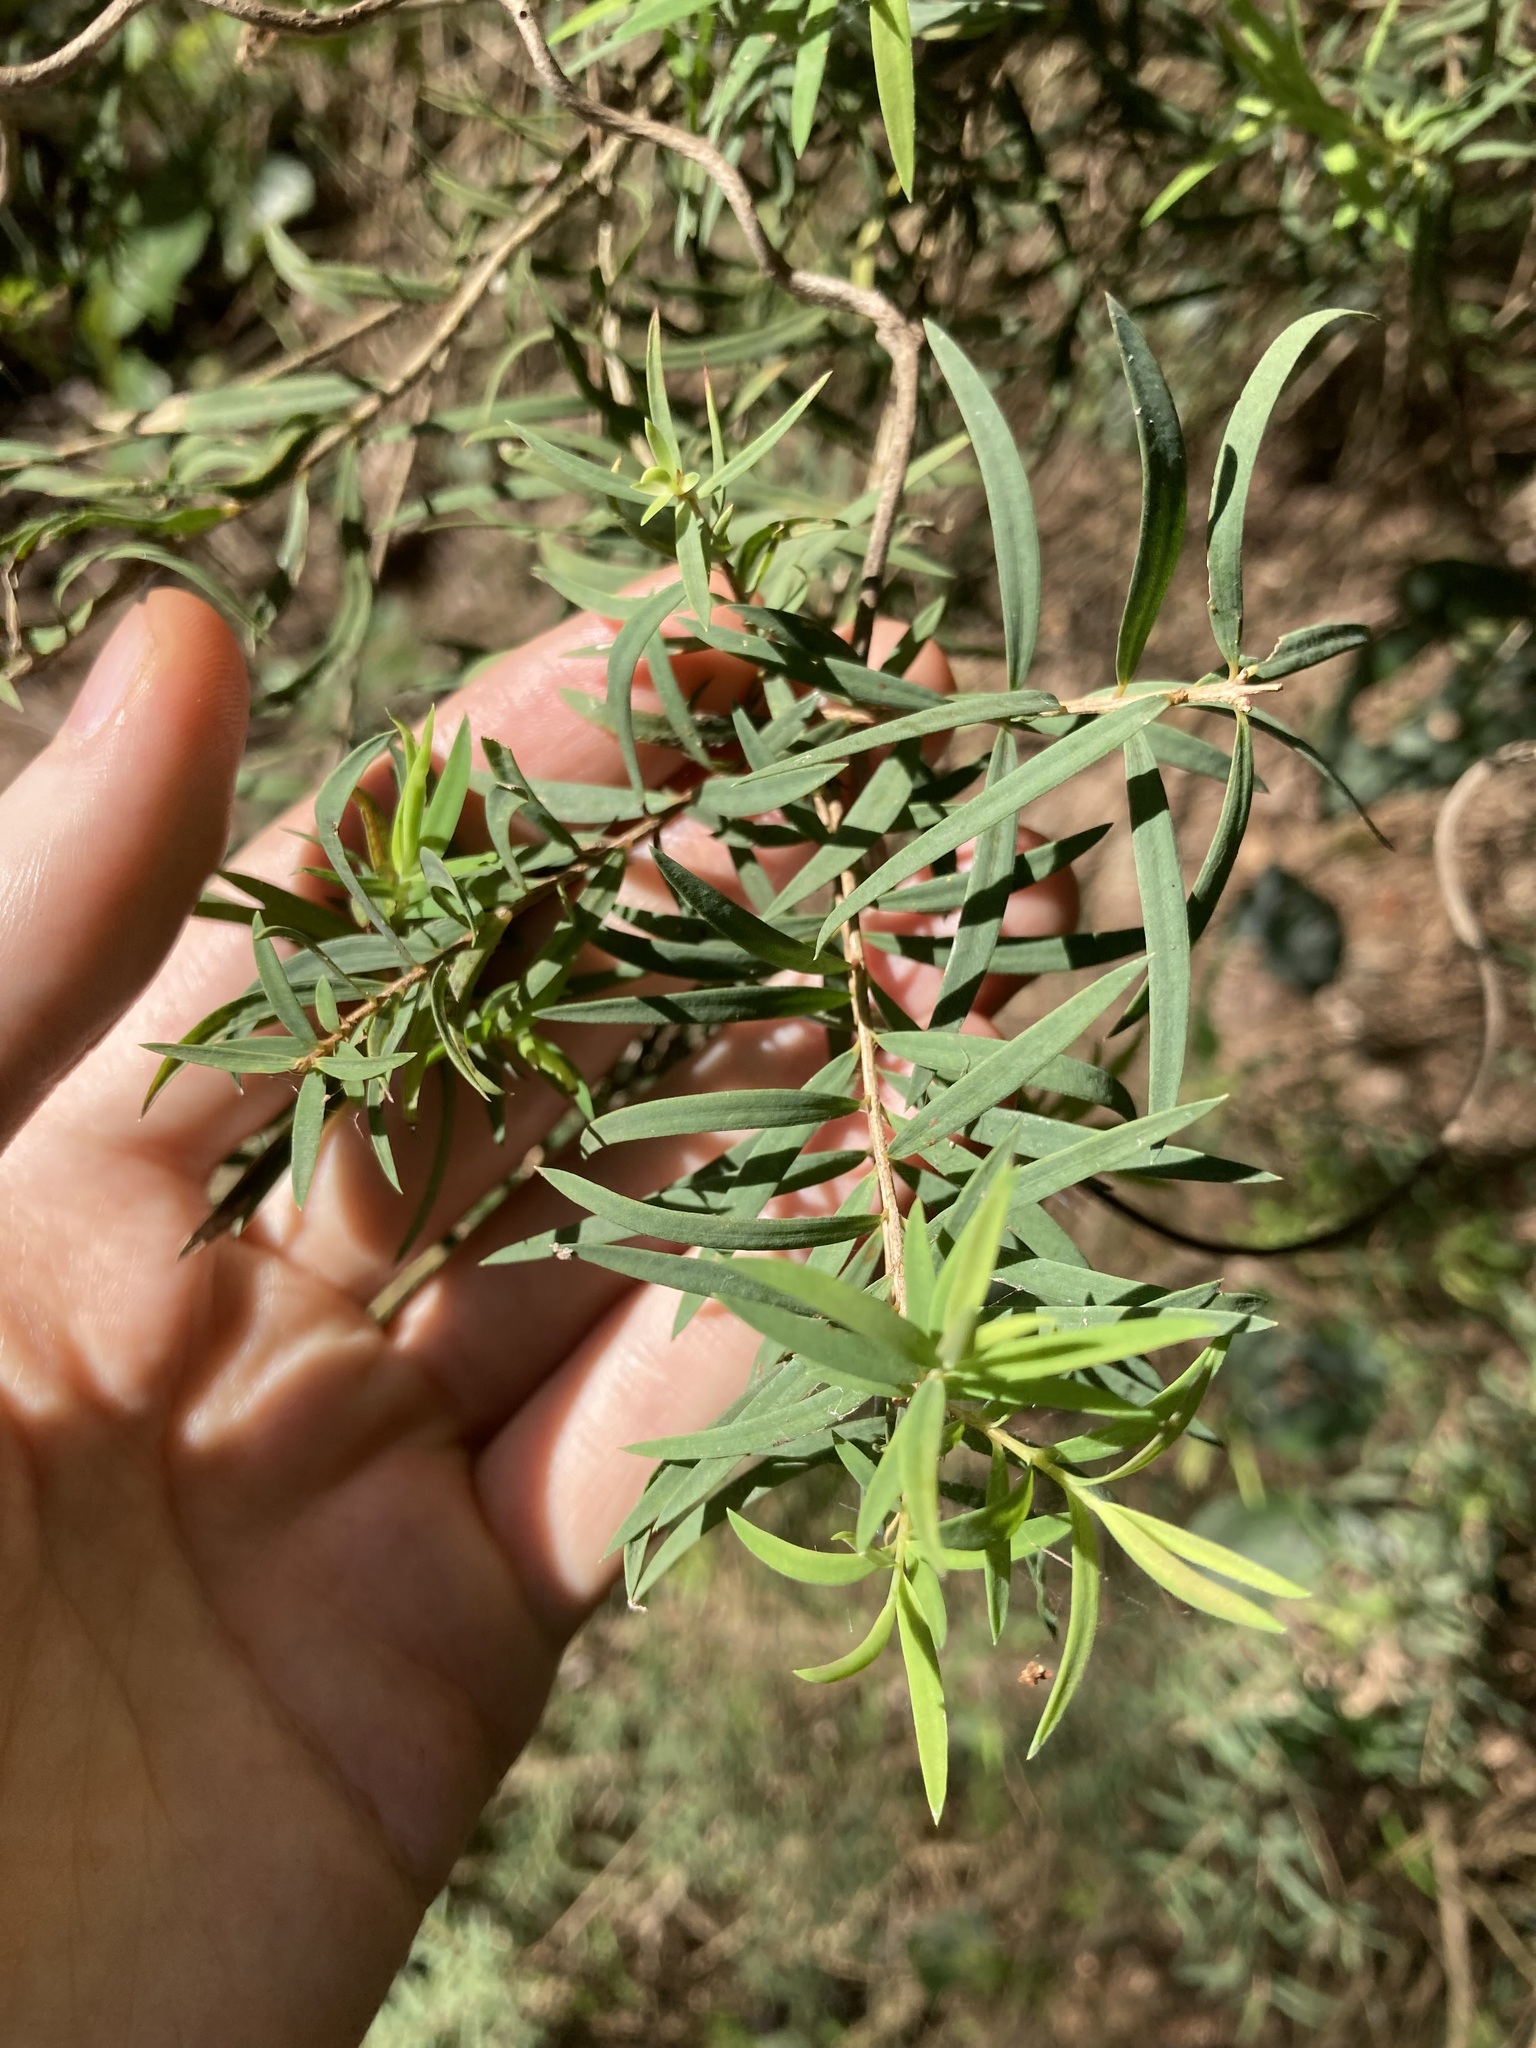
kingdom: Plantae
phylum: Tracheophyta
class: Magnoliopsida
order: Myrtales
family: Myrtaceae
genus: Melaleuca
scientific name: Melaleuca linariifolia
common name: Cajeput tree
